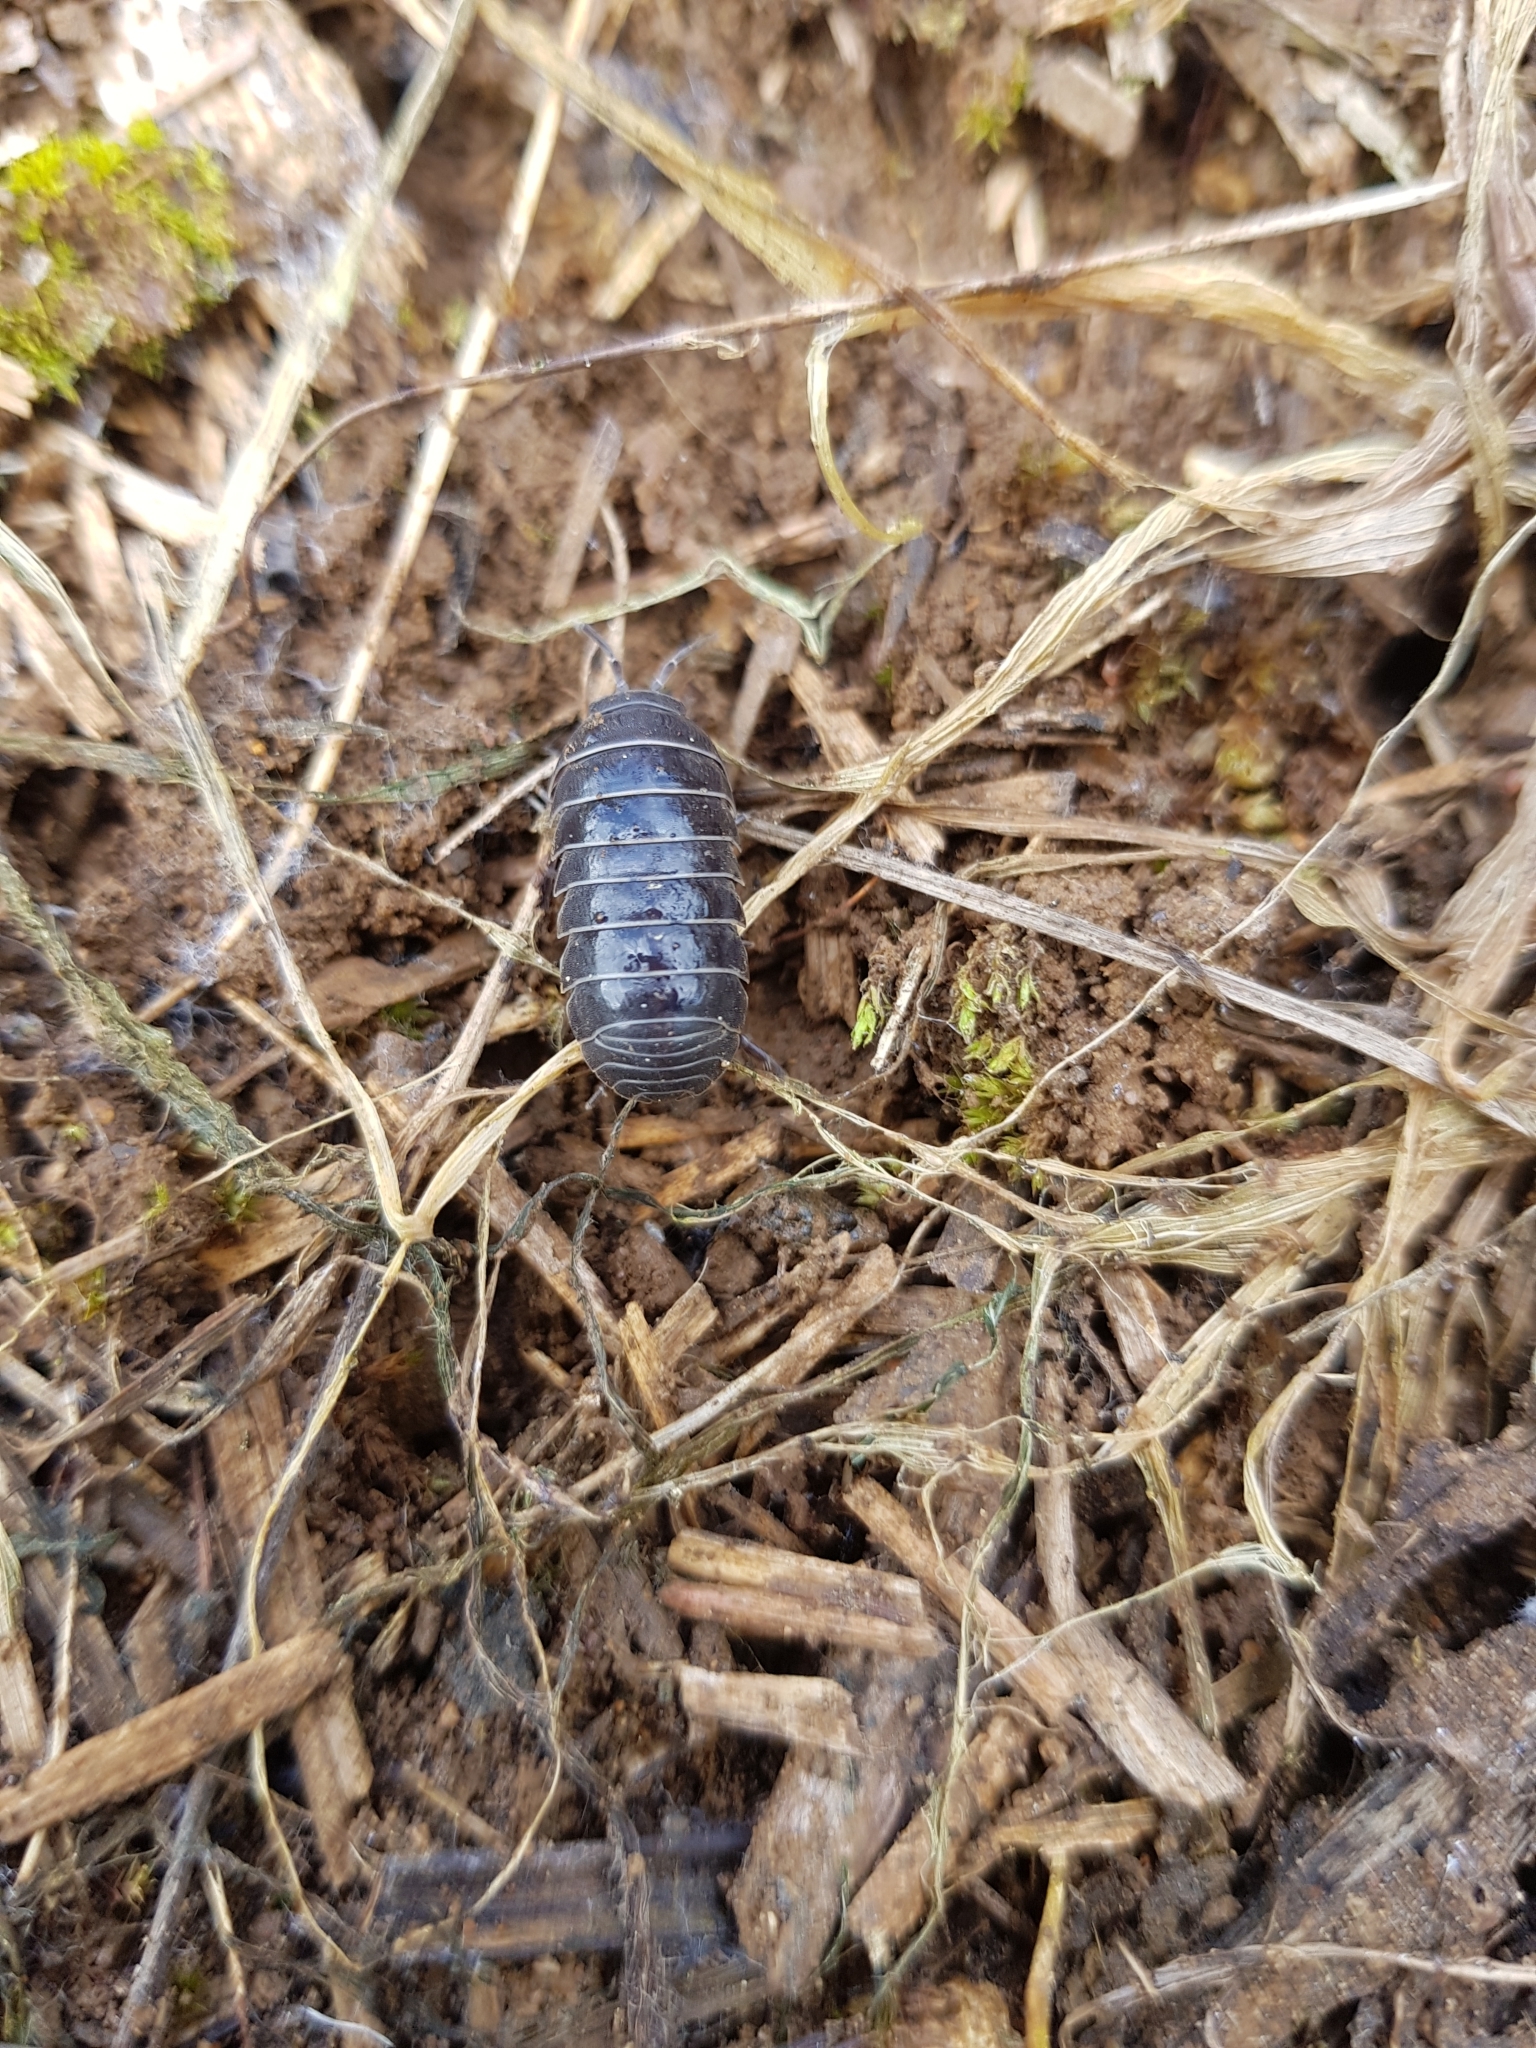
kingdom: Animalia
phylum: Arthropoda
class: Malacostraca
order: Isopoda
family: Armadillidiidae
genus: Armadillidium
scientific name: Armadillidium vulgare
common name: Common pill woodlouse
